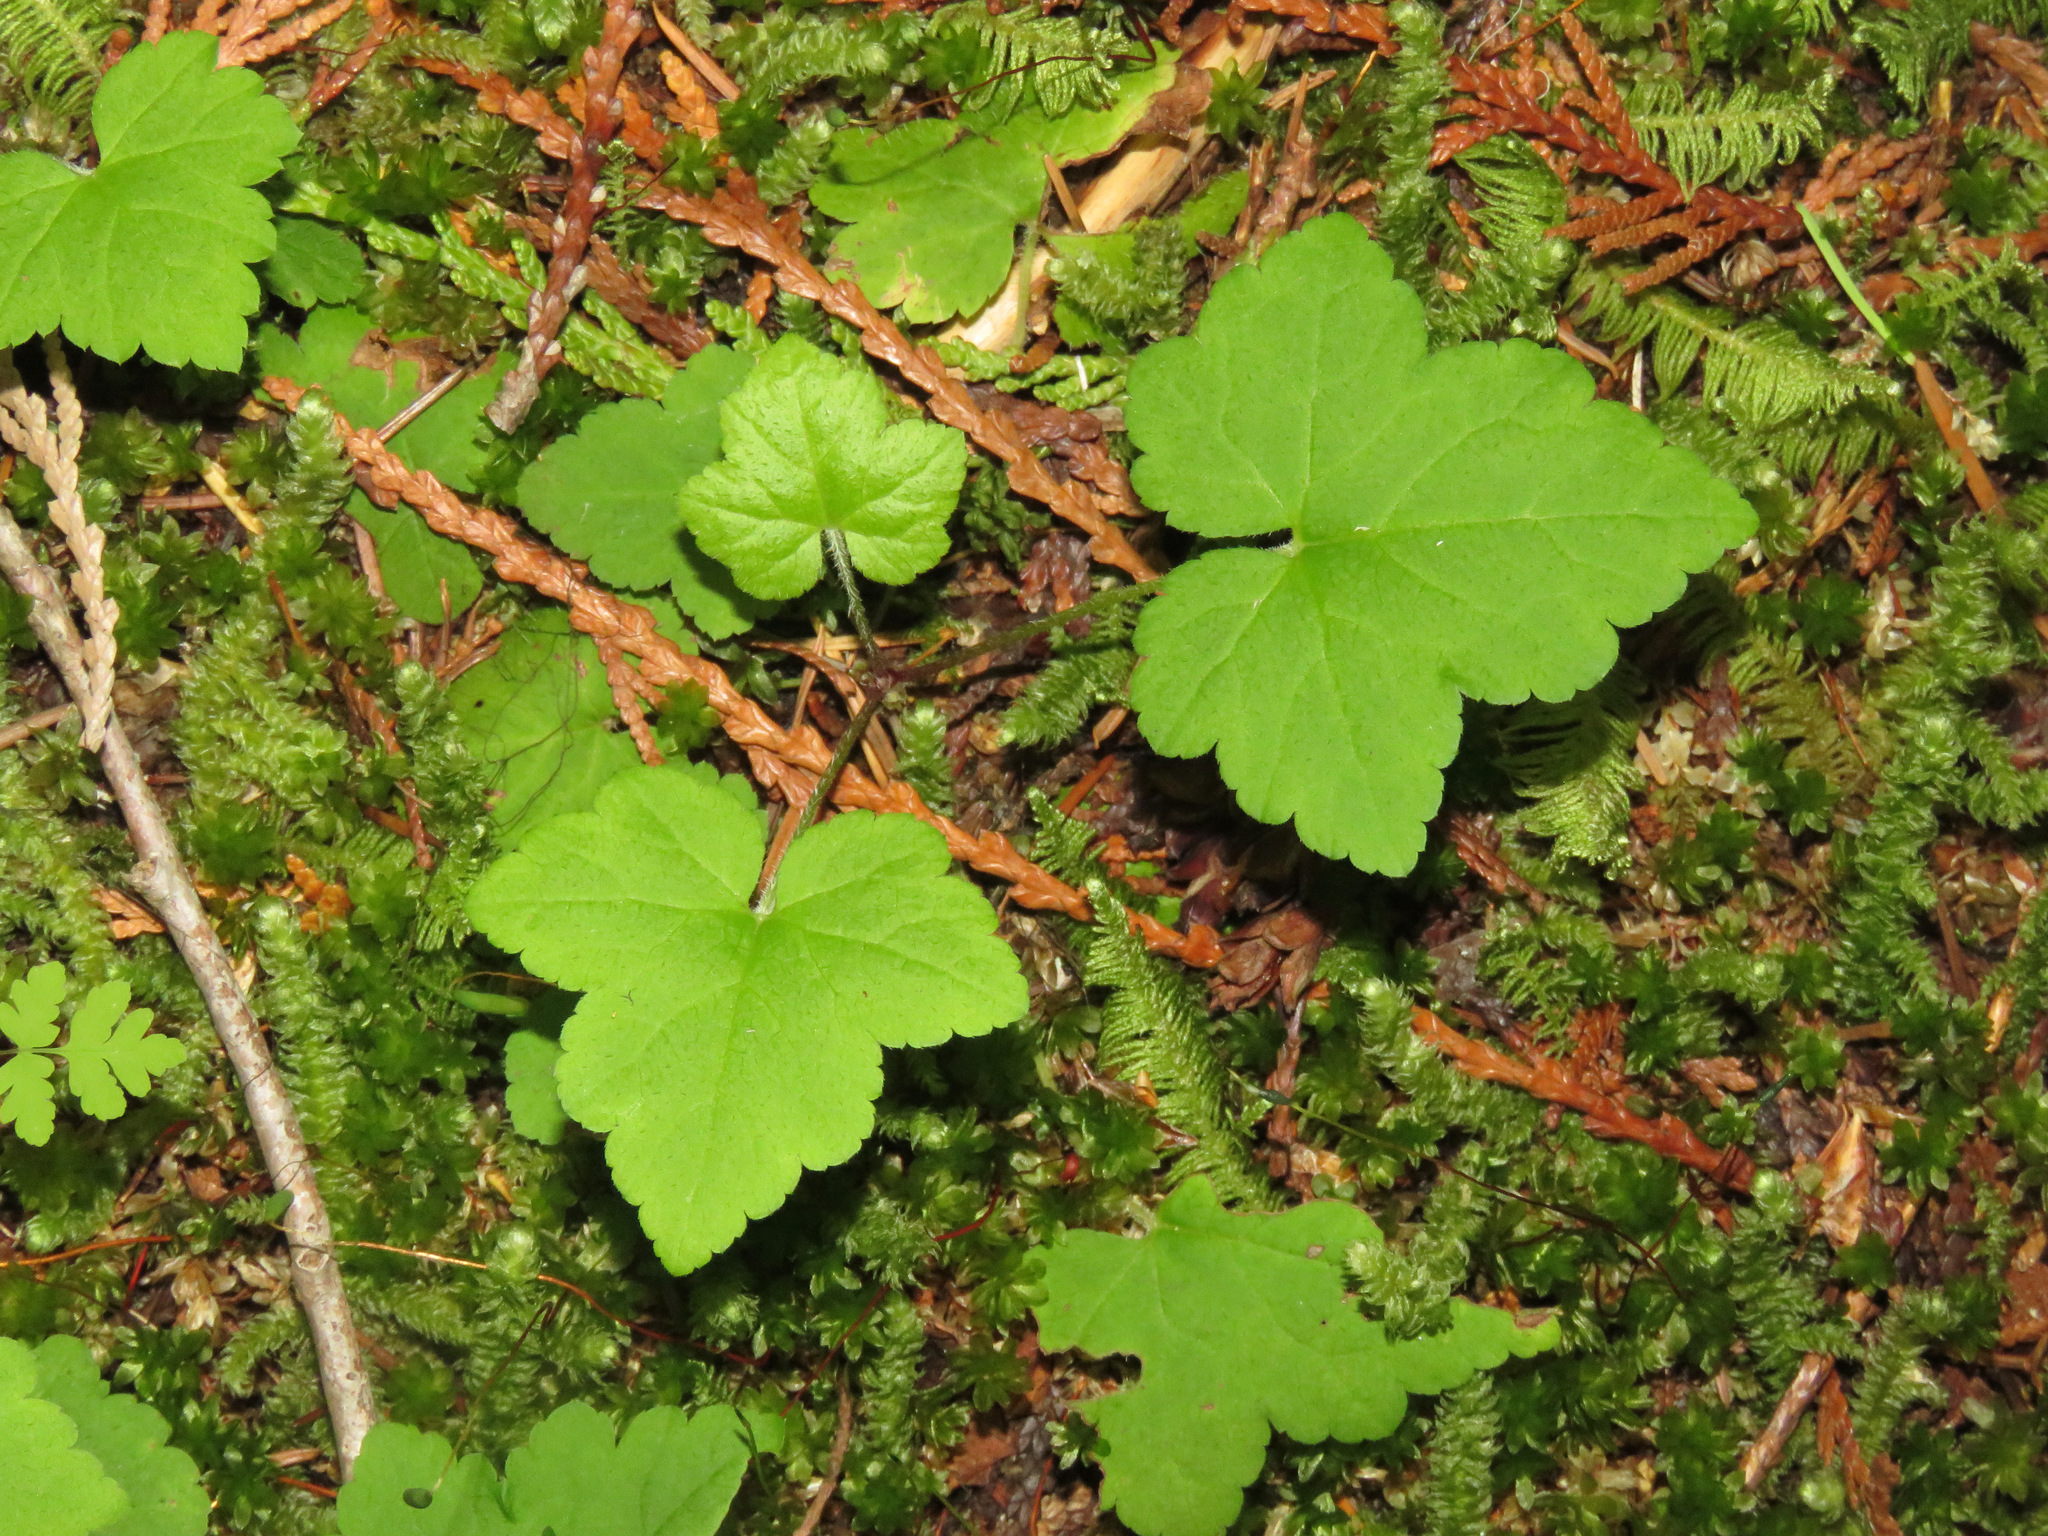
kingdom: Plantae
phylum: Tracheophyta
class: Magnoliopsida
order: Saxifragales
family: Saxifragaceae
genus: Tiarella
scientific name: Tiarella trifoliata
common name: Sugar-scoop
